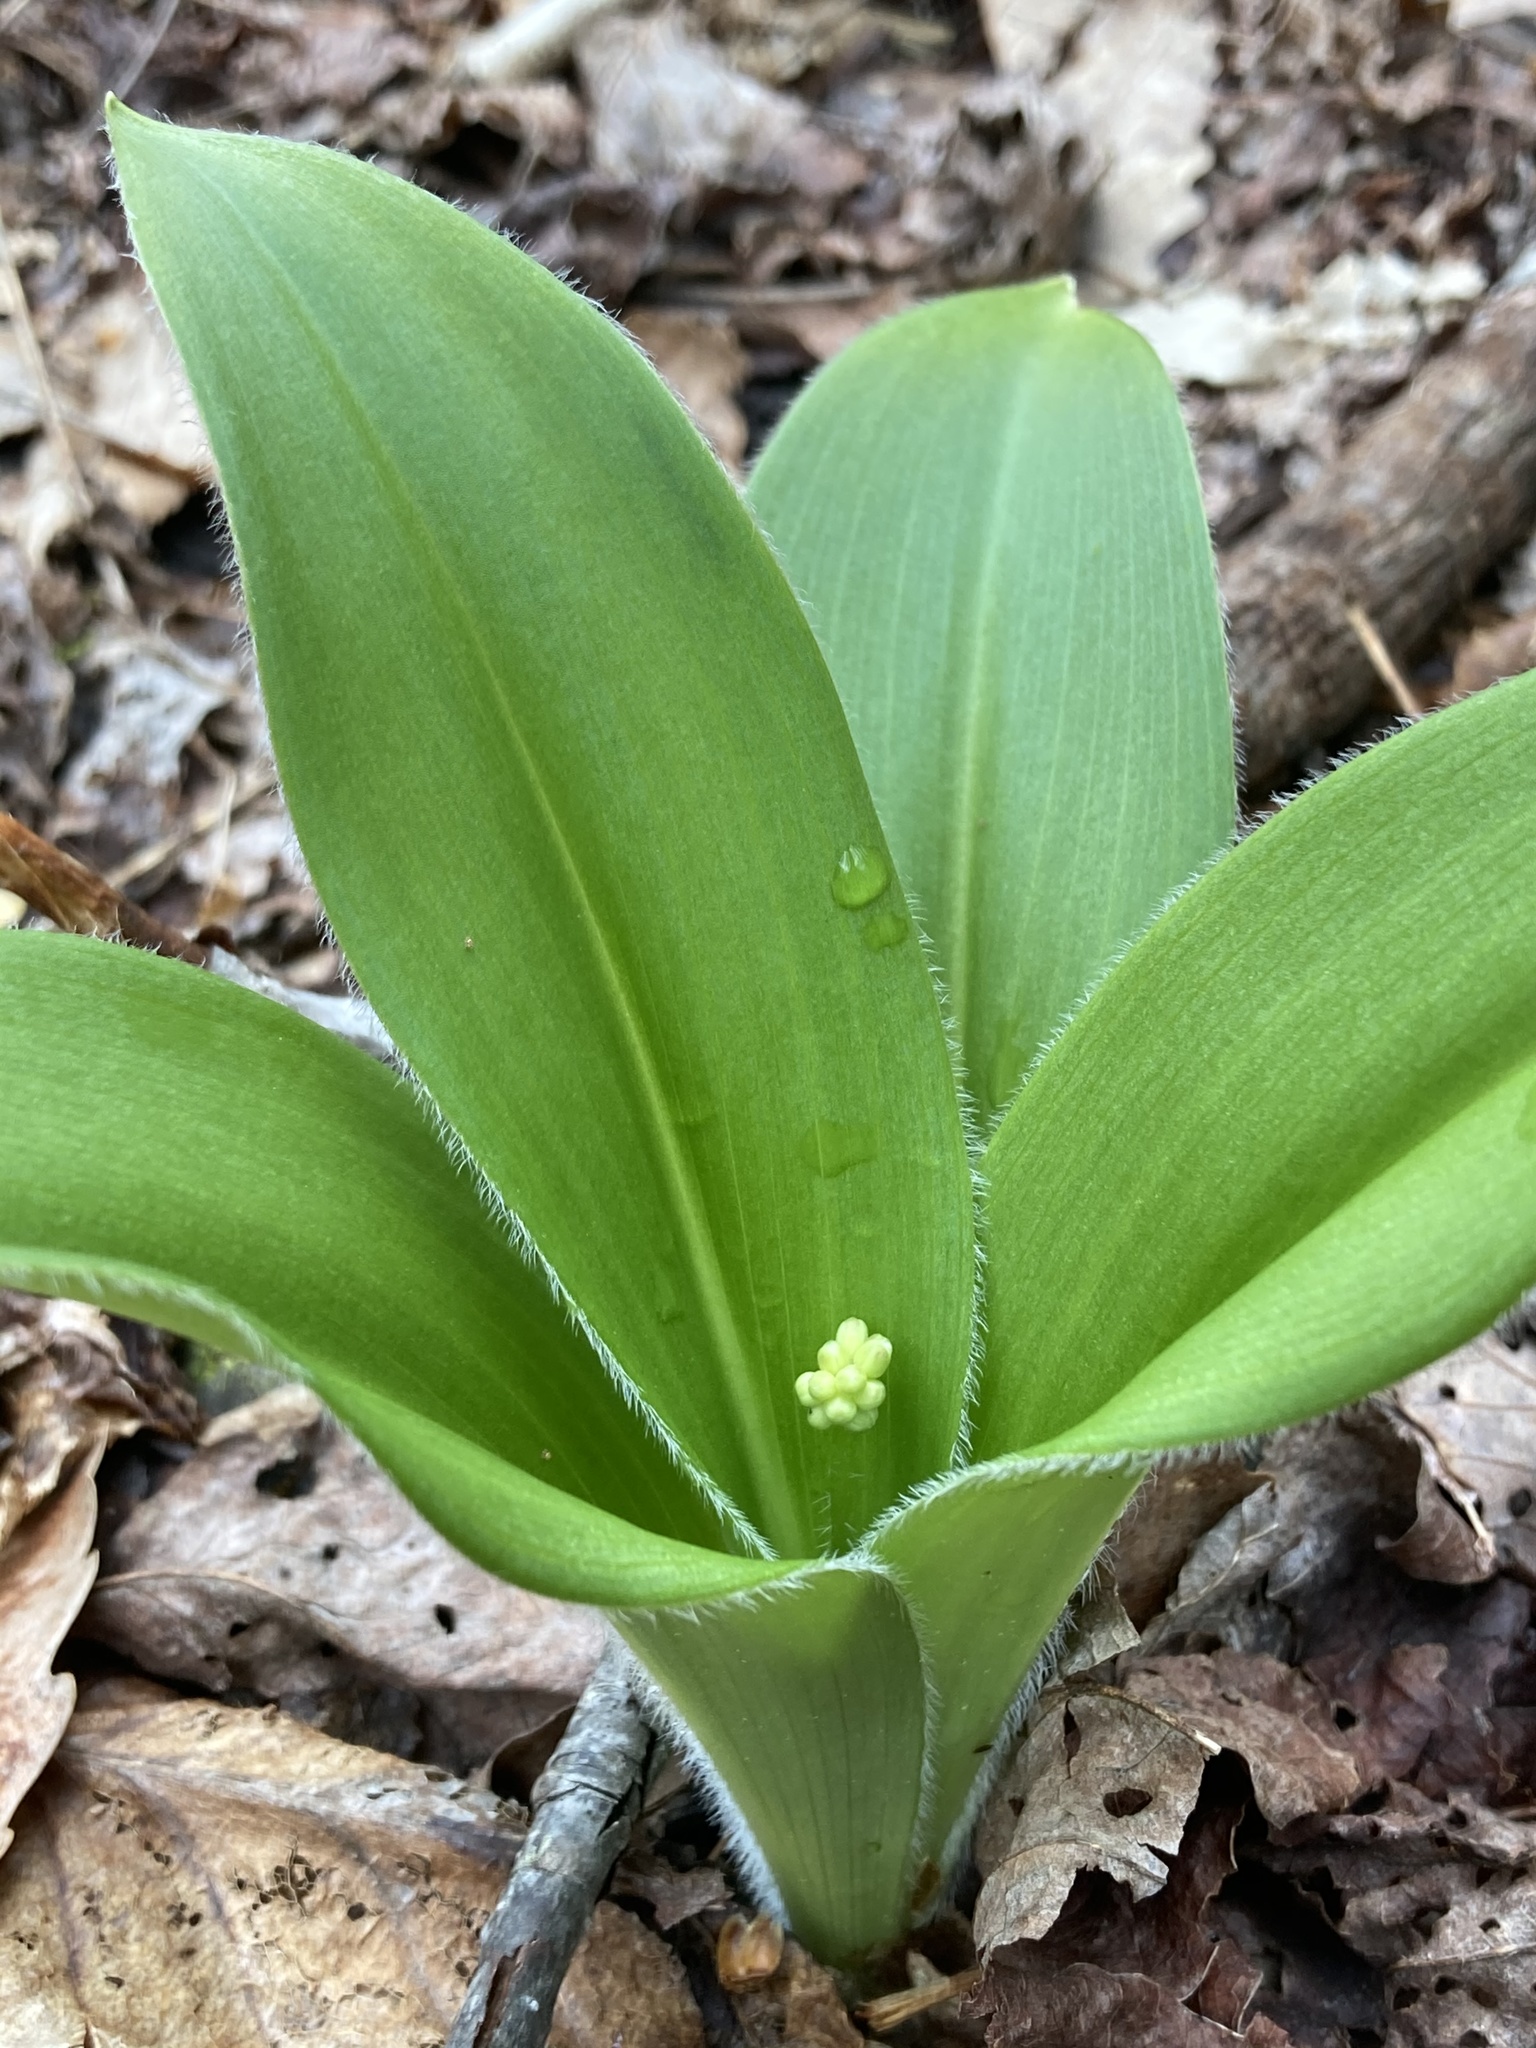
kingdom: Plantae
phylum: Tracheophyta
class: Liliopsida
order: Liliales
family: Liliaceae
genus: Clintonia
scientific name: Clintonia umbellulata
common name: Speckle wood-lily
